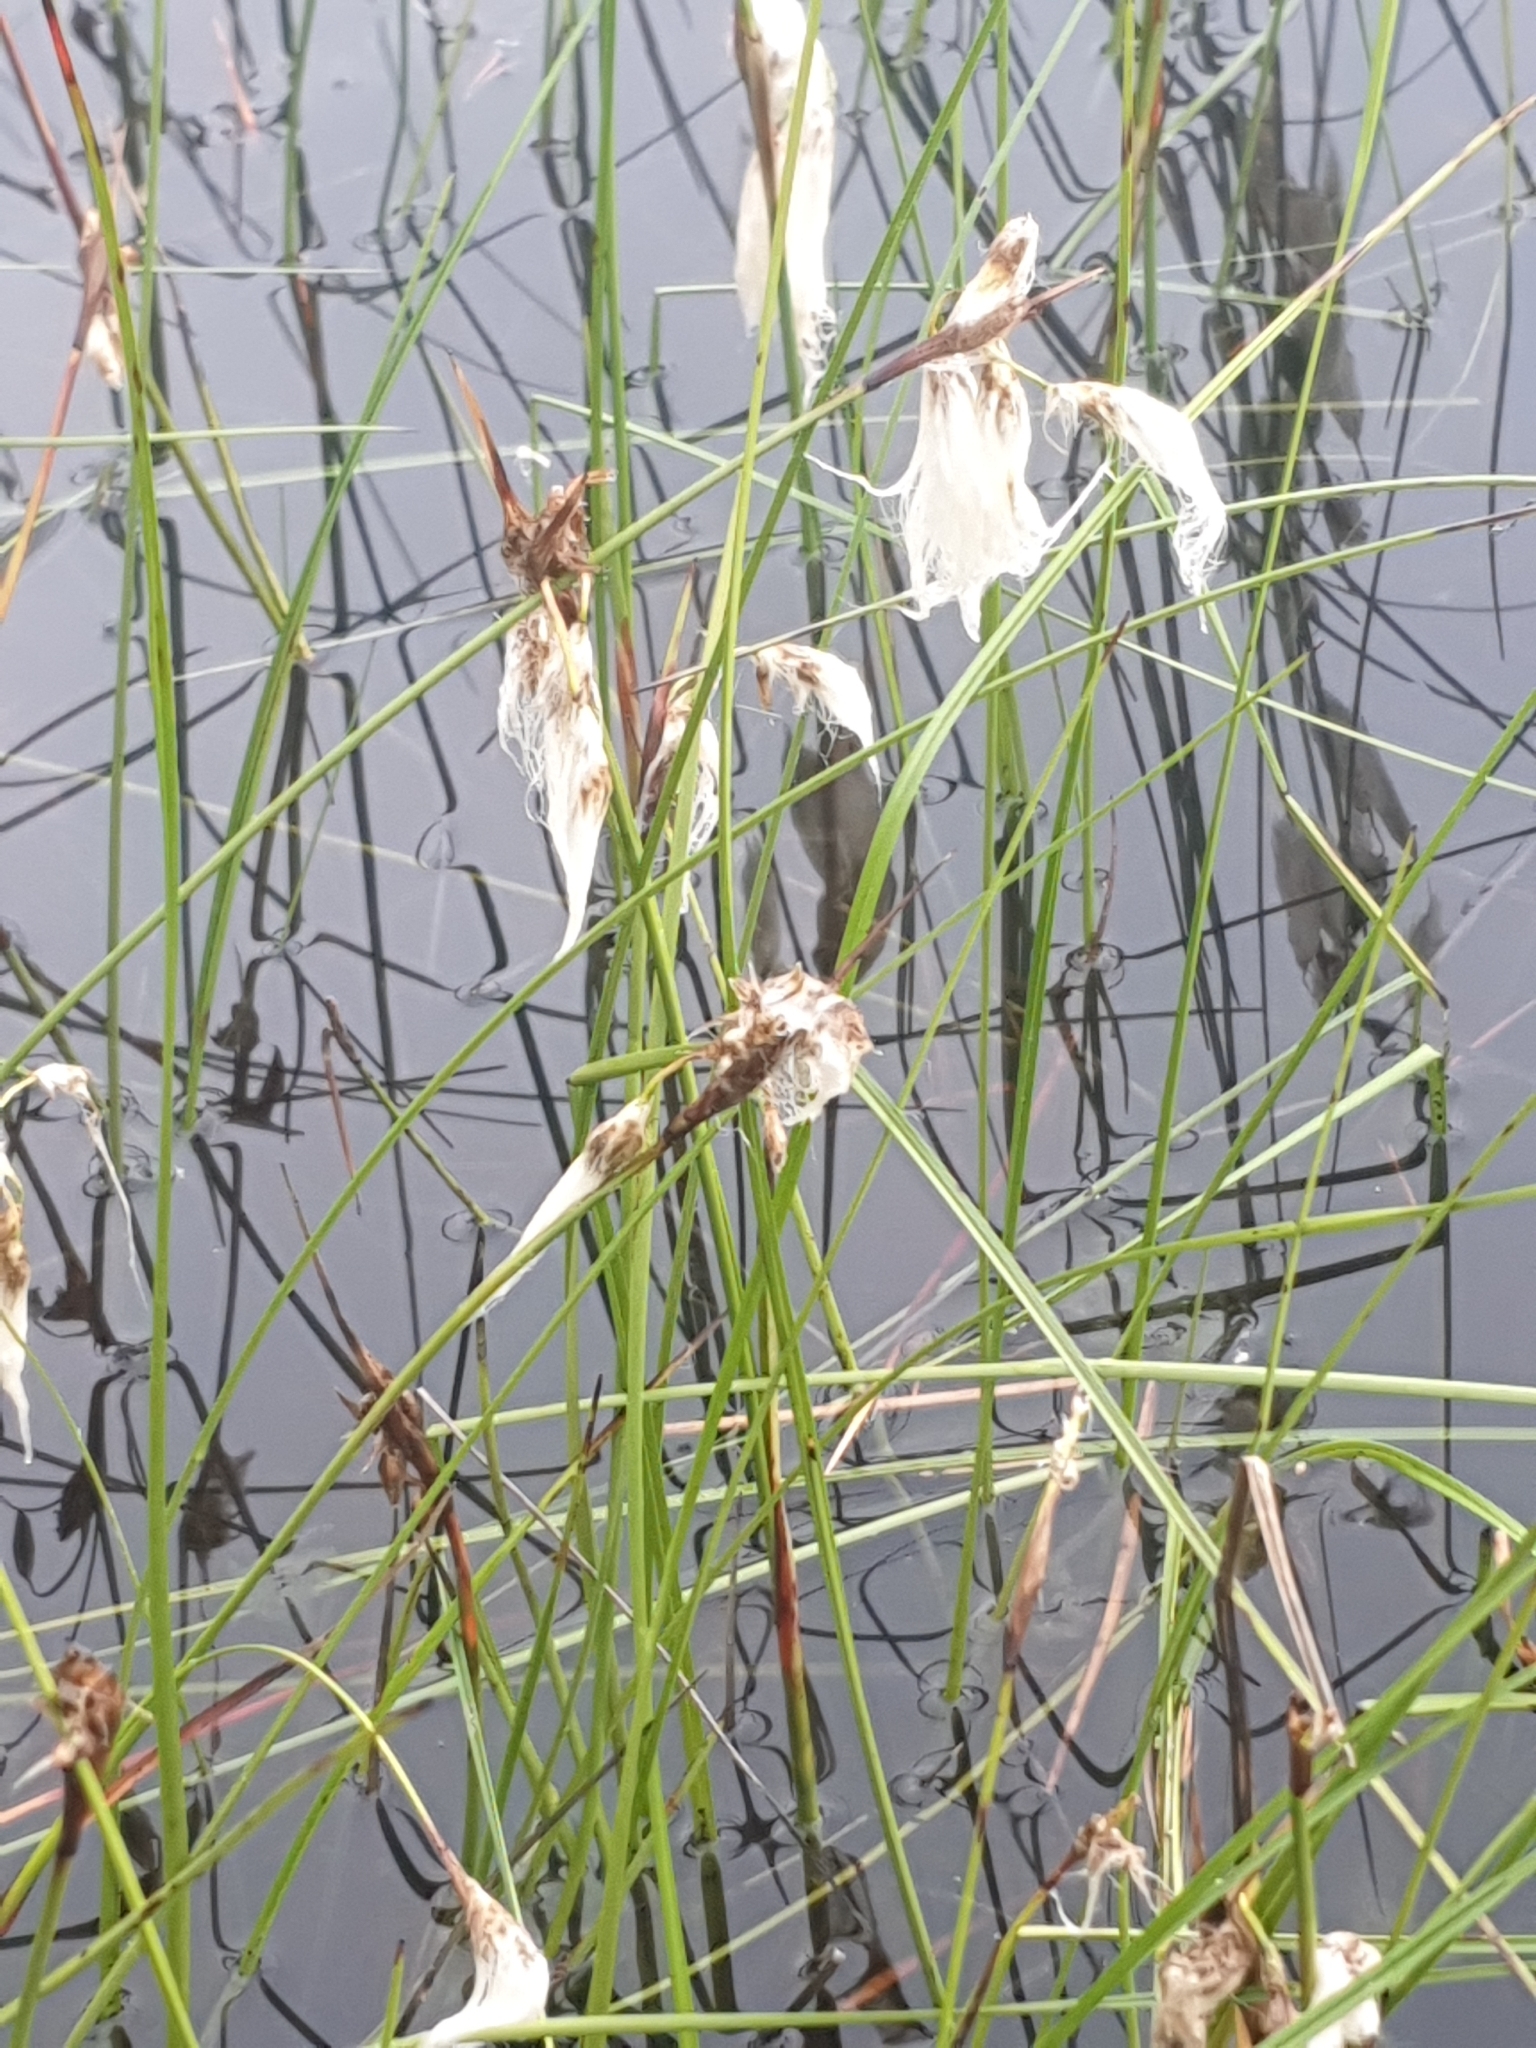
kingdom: Plantae
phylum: Tracheophyta
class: Liliopsida
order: Poales
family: Cyperaceae
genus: Eriophorum
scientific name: Eriophorum angustifolium
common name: Common cottongrass
